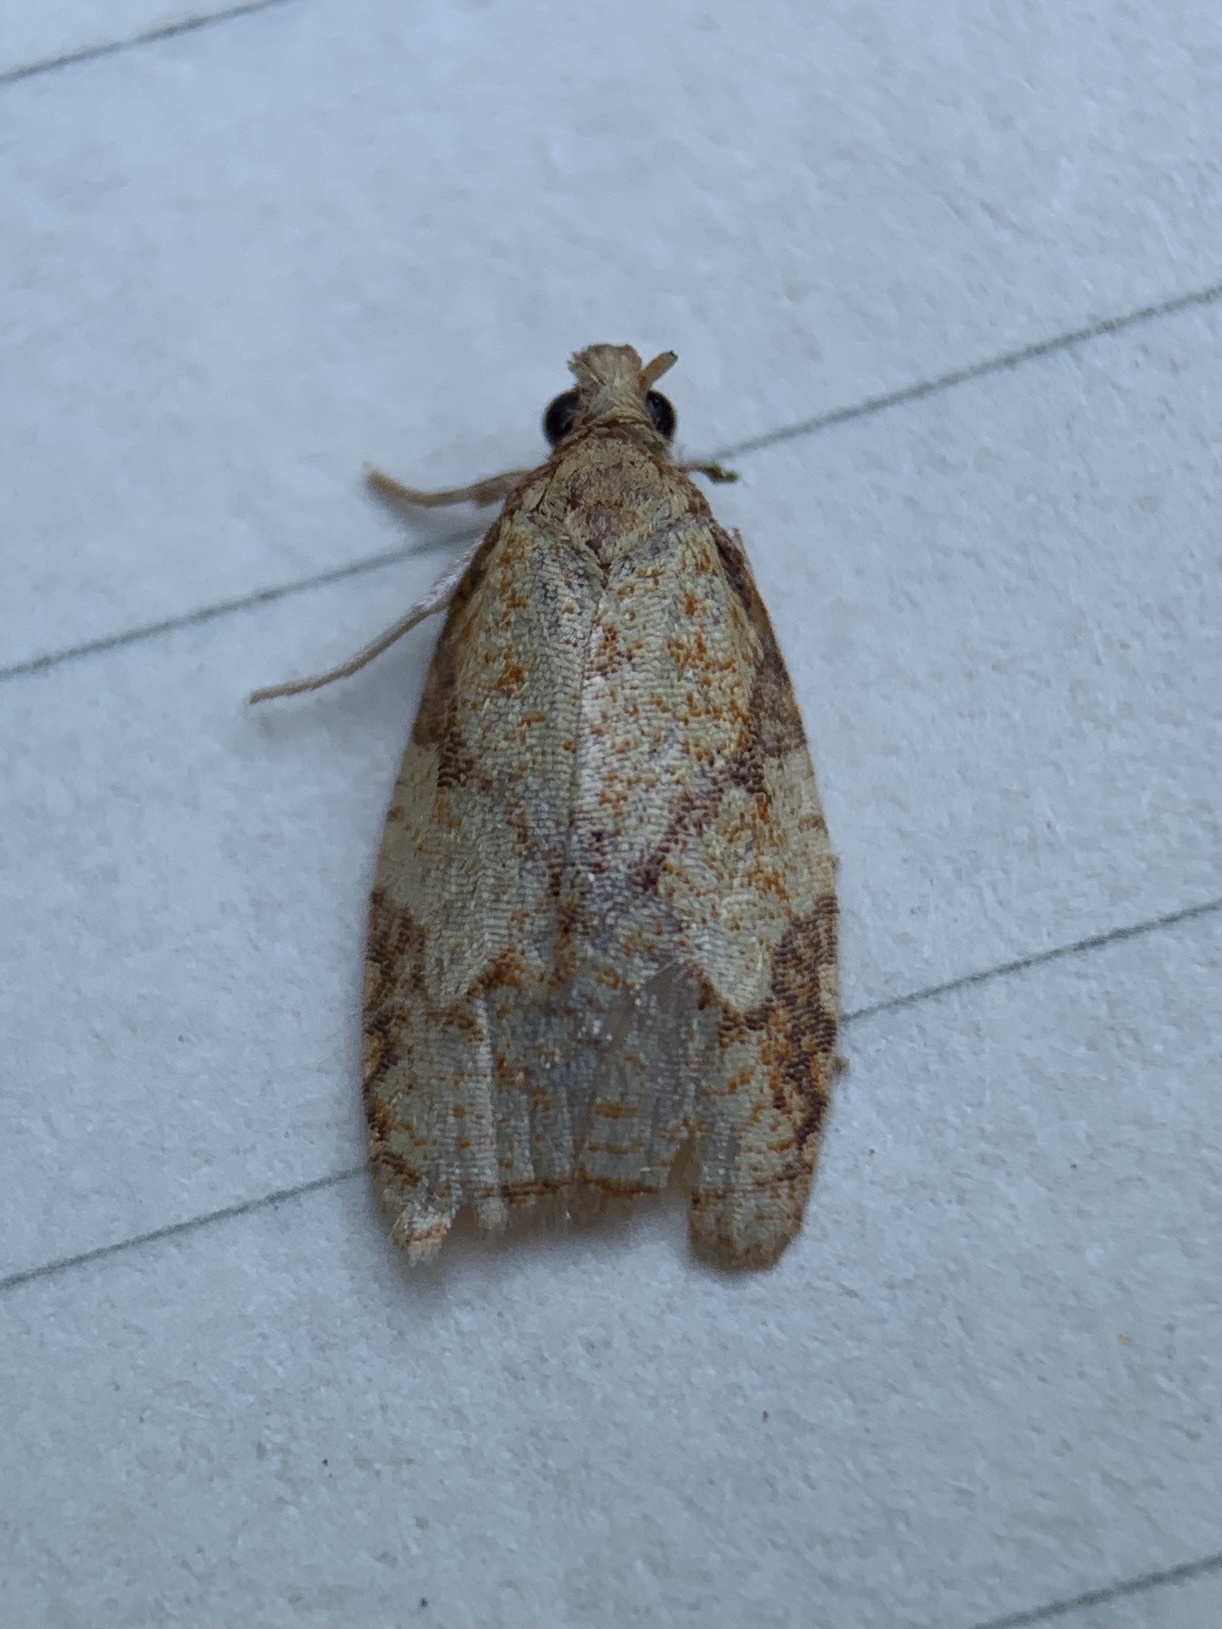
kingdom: Animalia
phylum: Arthropoda
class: Insecta
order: Lepidoptera
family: Tortricidae
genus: Cenopis
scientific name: Cenopis reticulatana
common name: Reticulated fruitworm moth
